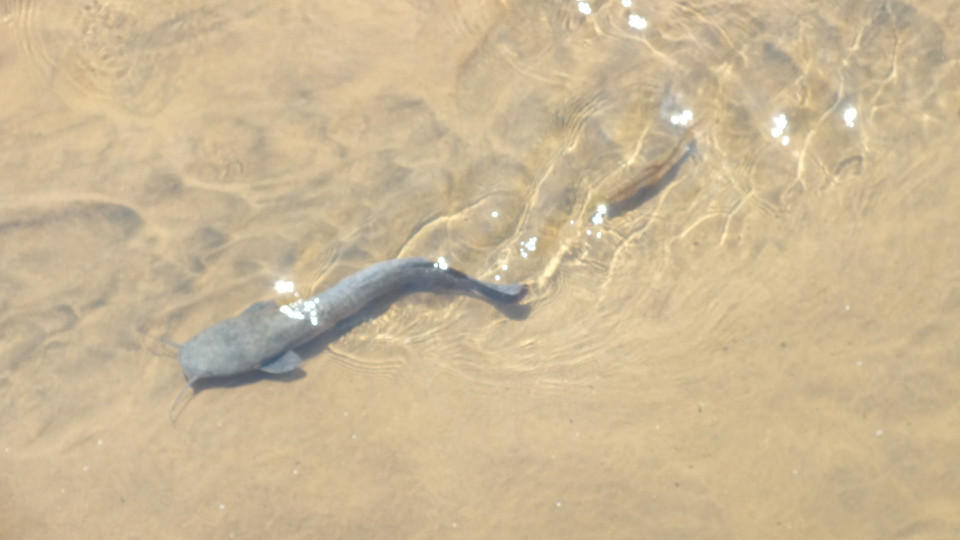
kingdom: Animalia
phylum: Chordata
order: Siluriformes
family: Clariidae
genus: Clarias
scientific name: Clarias gariepinus
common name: African catfish
